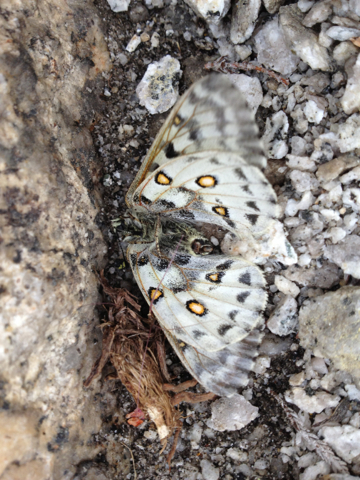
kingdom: Animalia
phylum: Arthropoda
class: Insecta
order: Lepidoptera
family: Papilionidae
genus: Parnassius
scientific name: Parnassius smintheus
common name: Mountain parnassian
